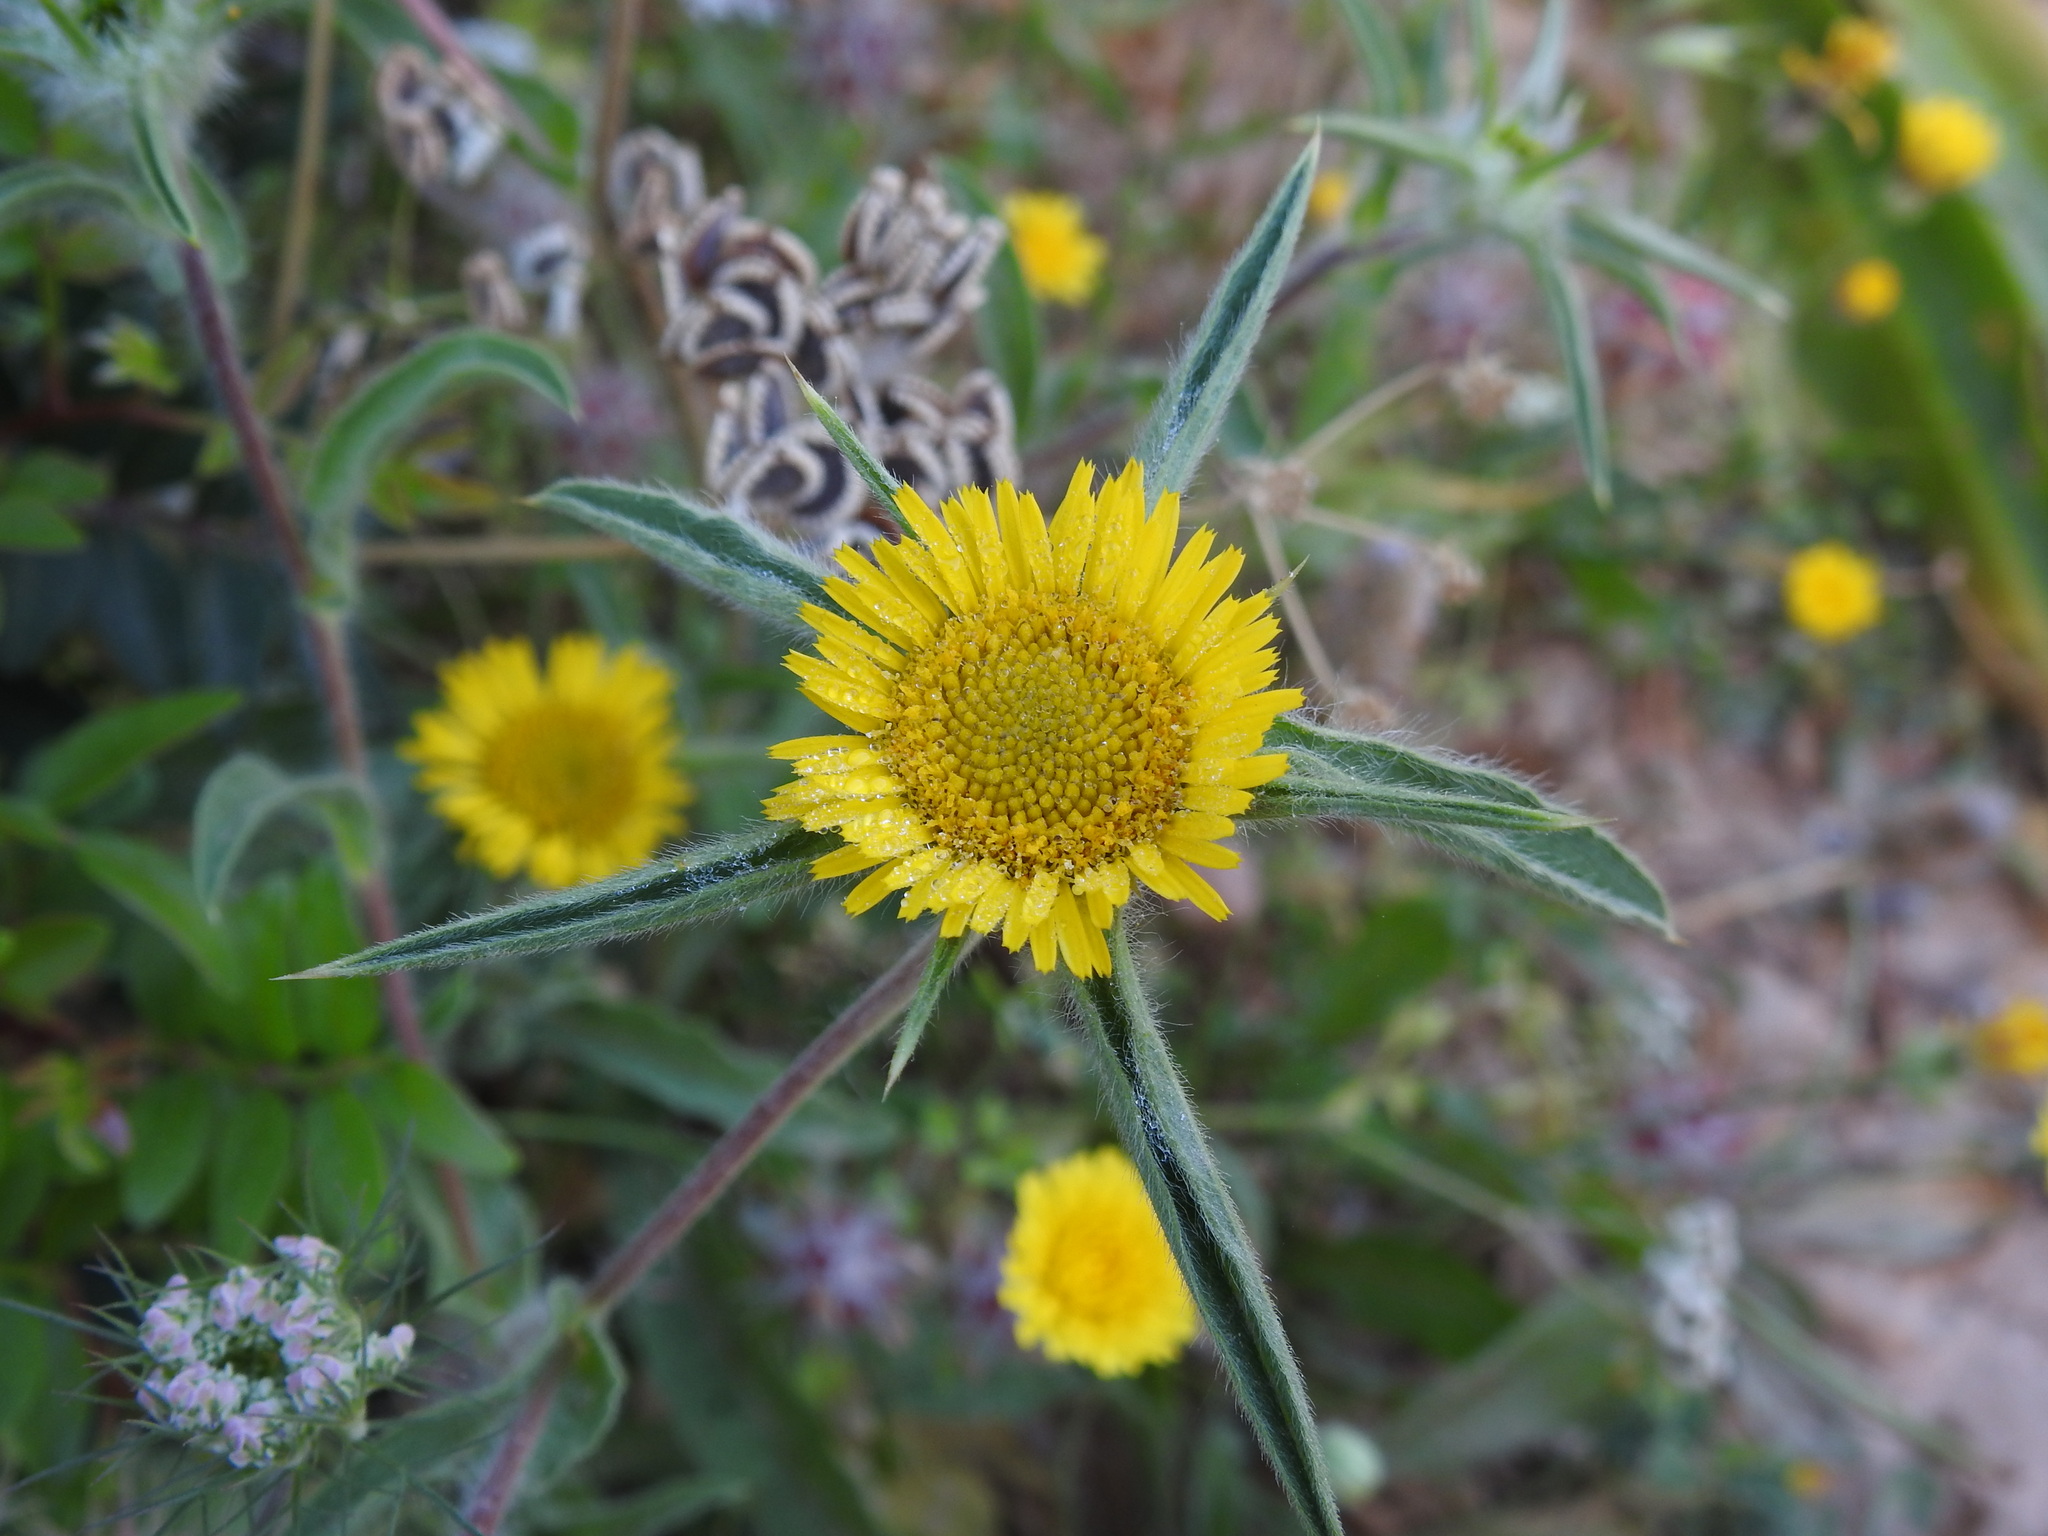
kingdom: Plantae
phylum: Tracheophyta
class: Magnoliopsida
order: Asterales
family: Asteraceae
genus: Pallenis
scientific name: Pallenis spinosa
